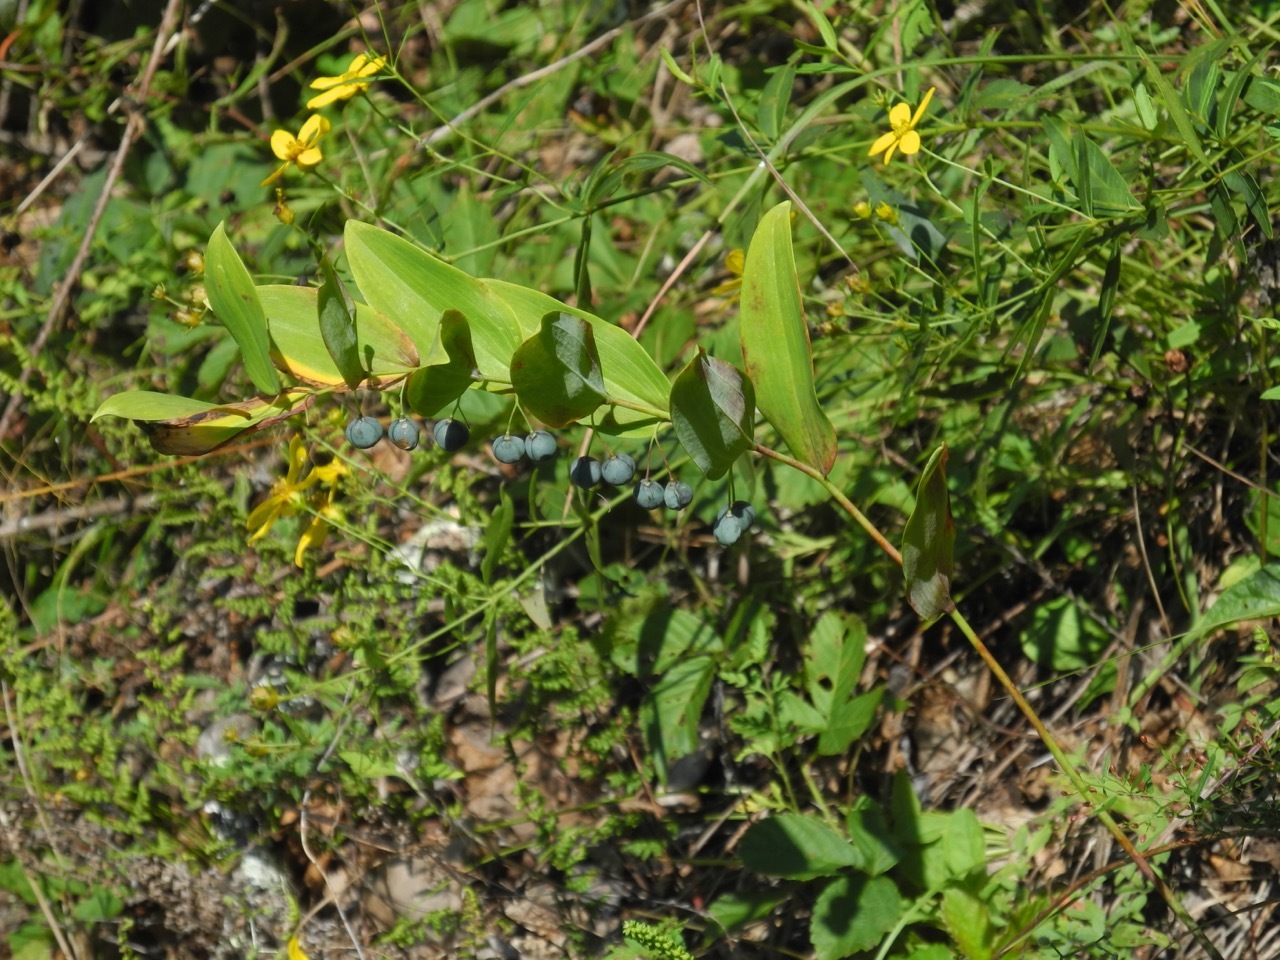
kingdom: Plantae
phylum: Tracheophyta
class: Liliopsida
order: Asparagales
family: Asparagaceae
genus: Polygonatum
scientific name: Polygonatum biflorum
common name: American solomon's-seal
